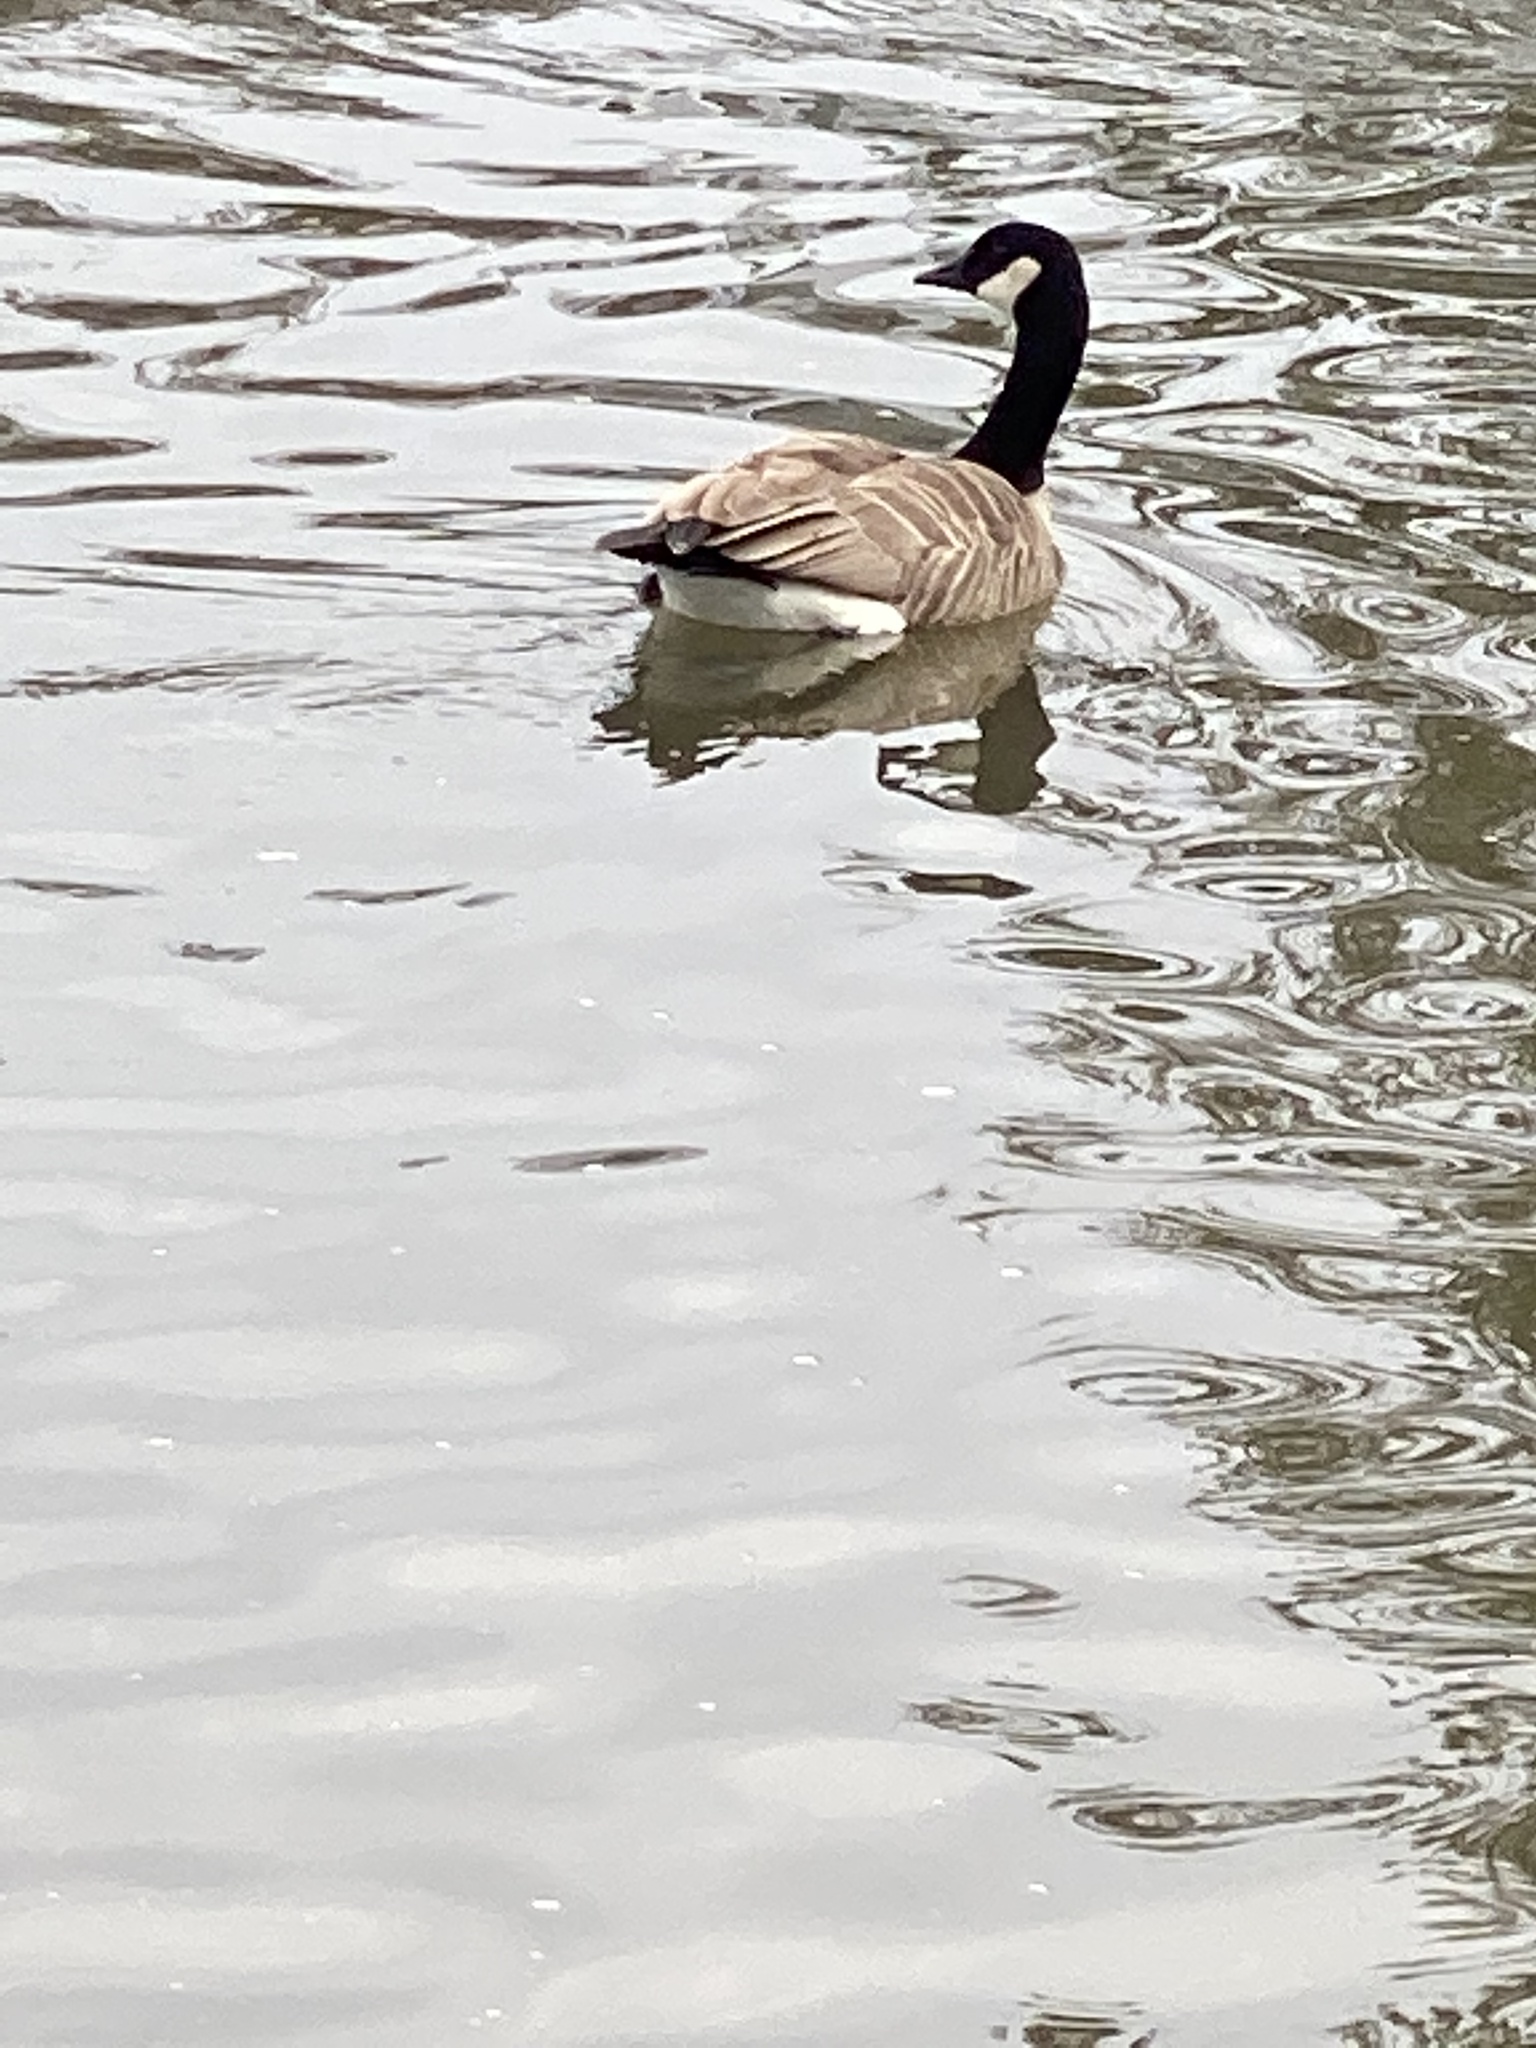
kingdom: Animalia
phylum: Chordata
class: Aves
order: Anseriformes
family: Anatidae
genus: Branta
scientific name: Branta canadensis
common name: Canada goose
